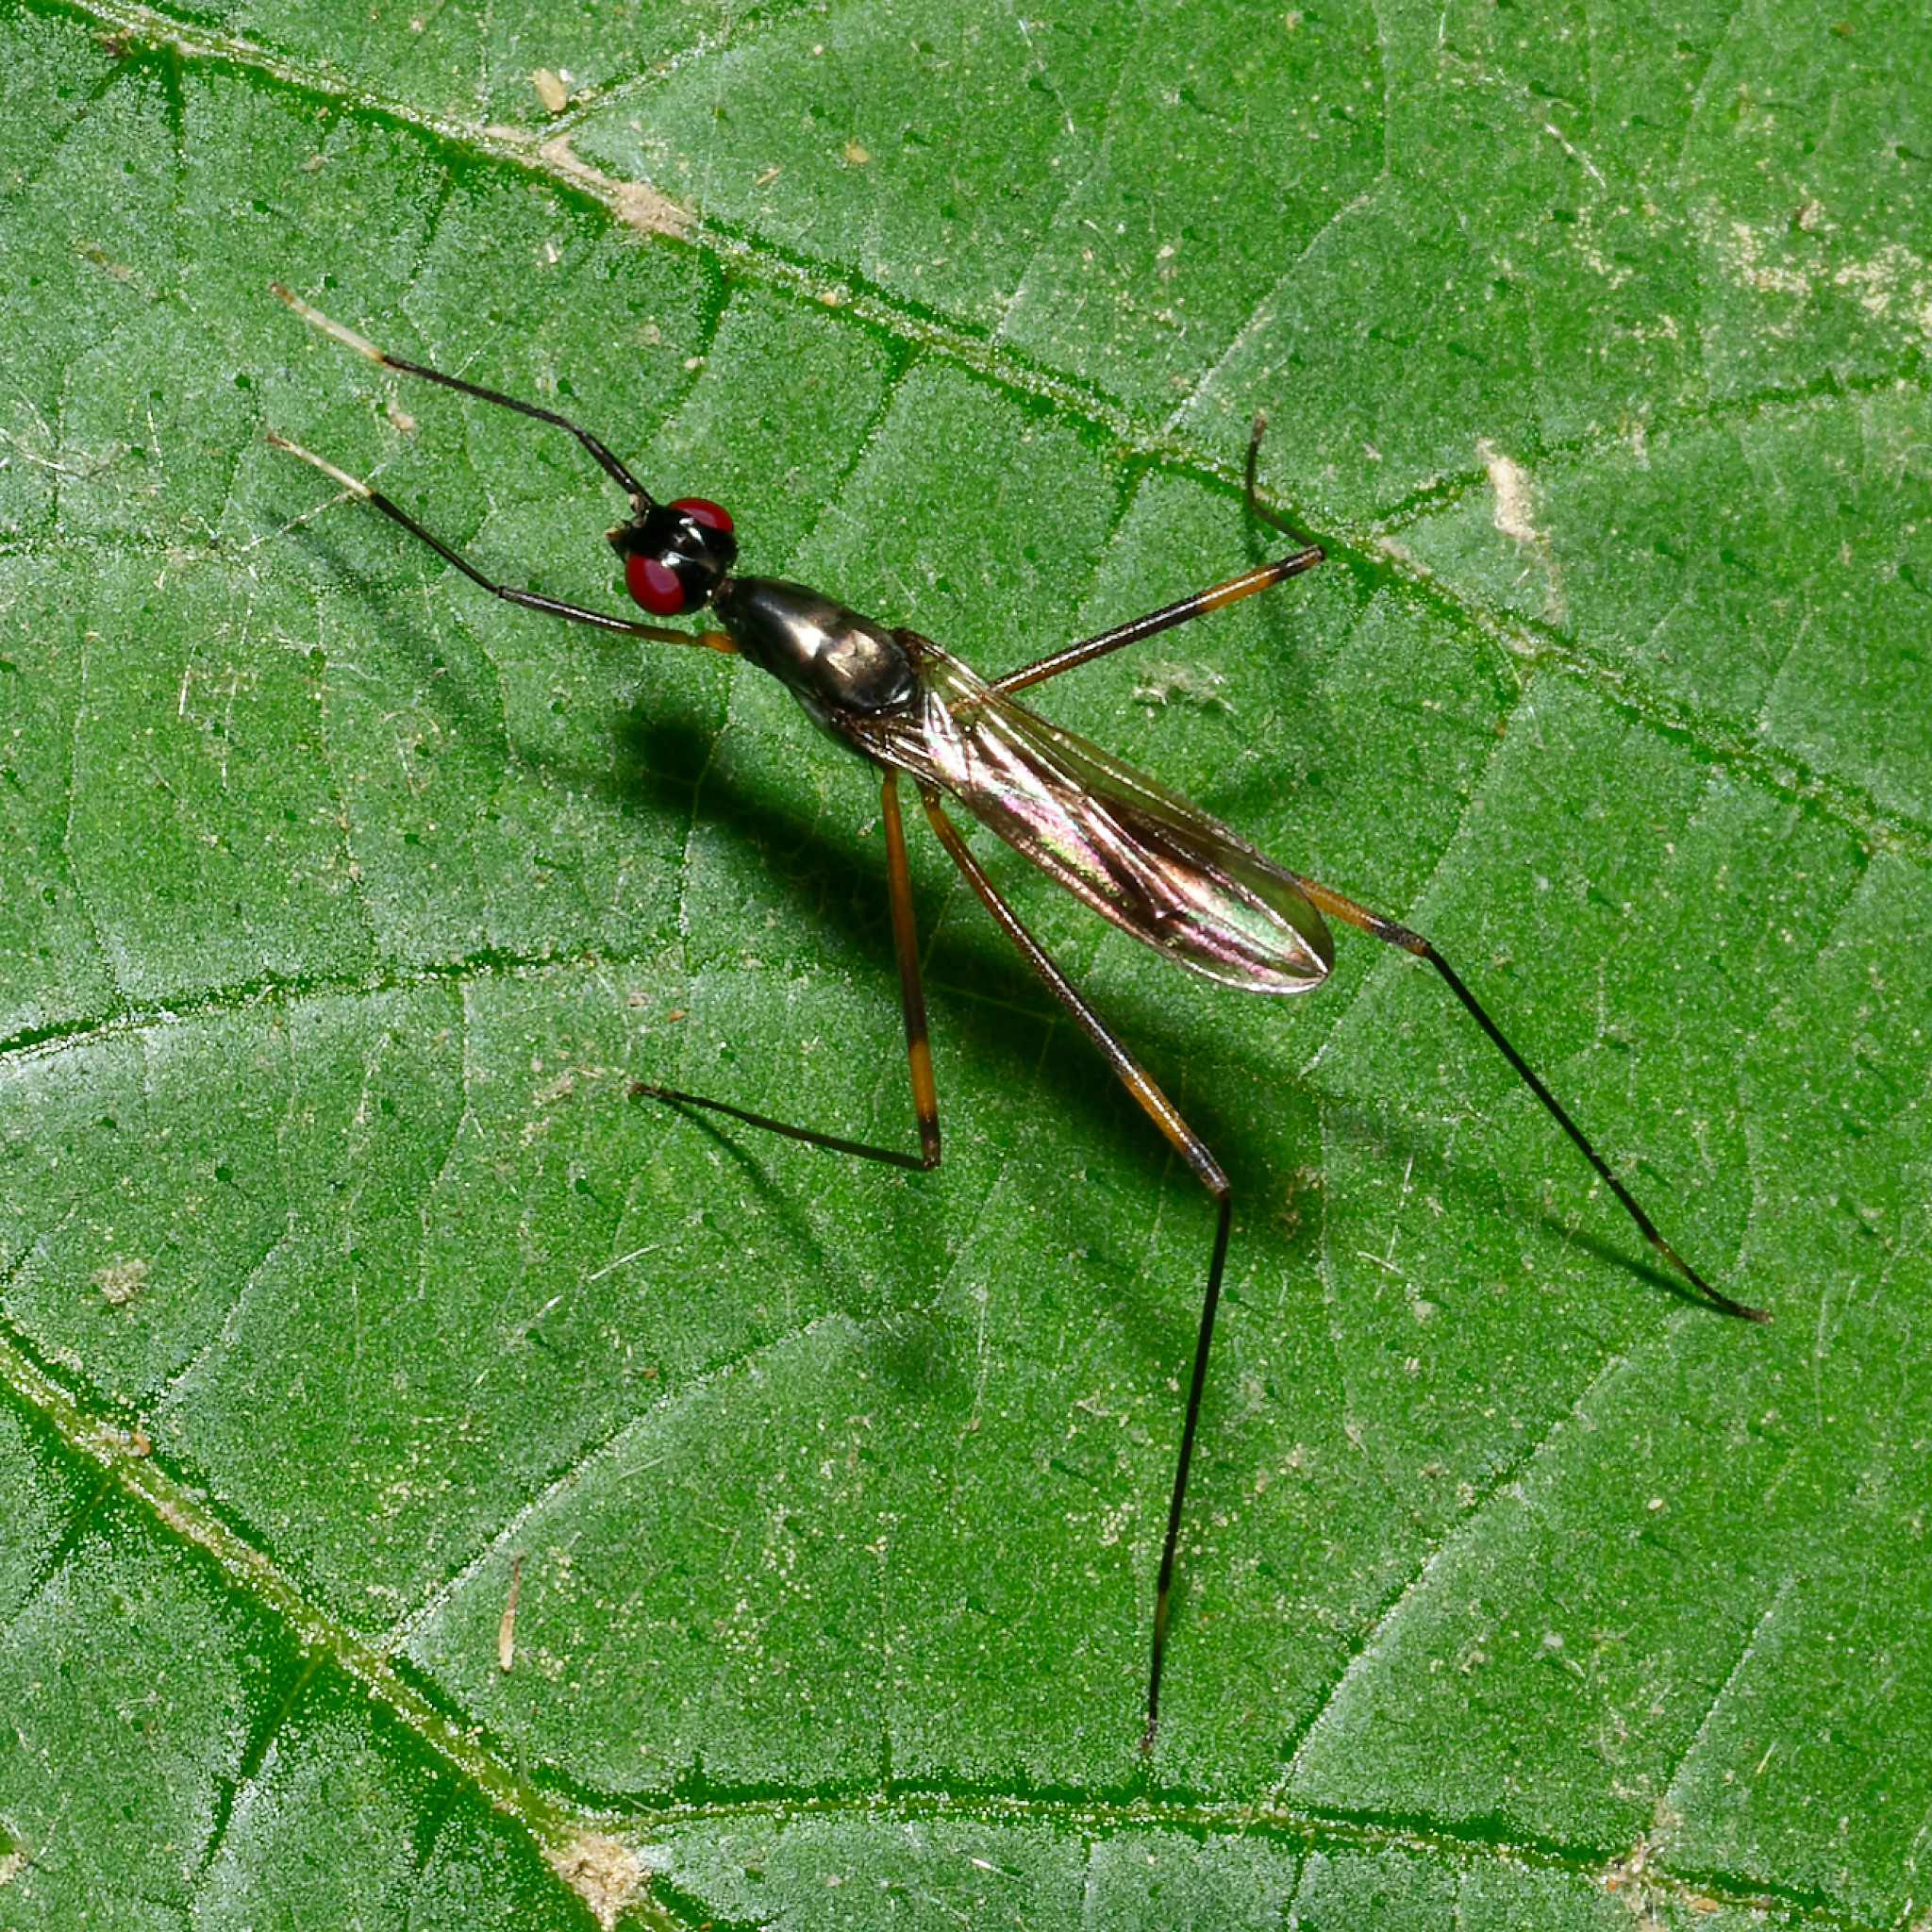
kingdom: Animalia
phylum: Arthropoda
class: Insecta
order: Diptera
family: Micropezidae
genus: Rainieria
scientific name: Rainieria antennaepes
